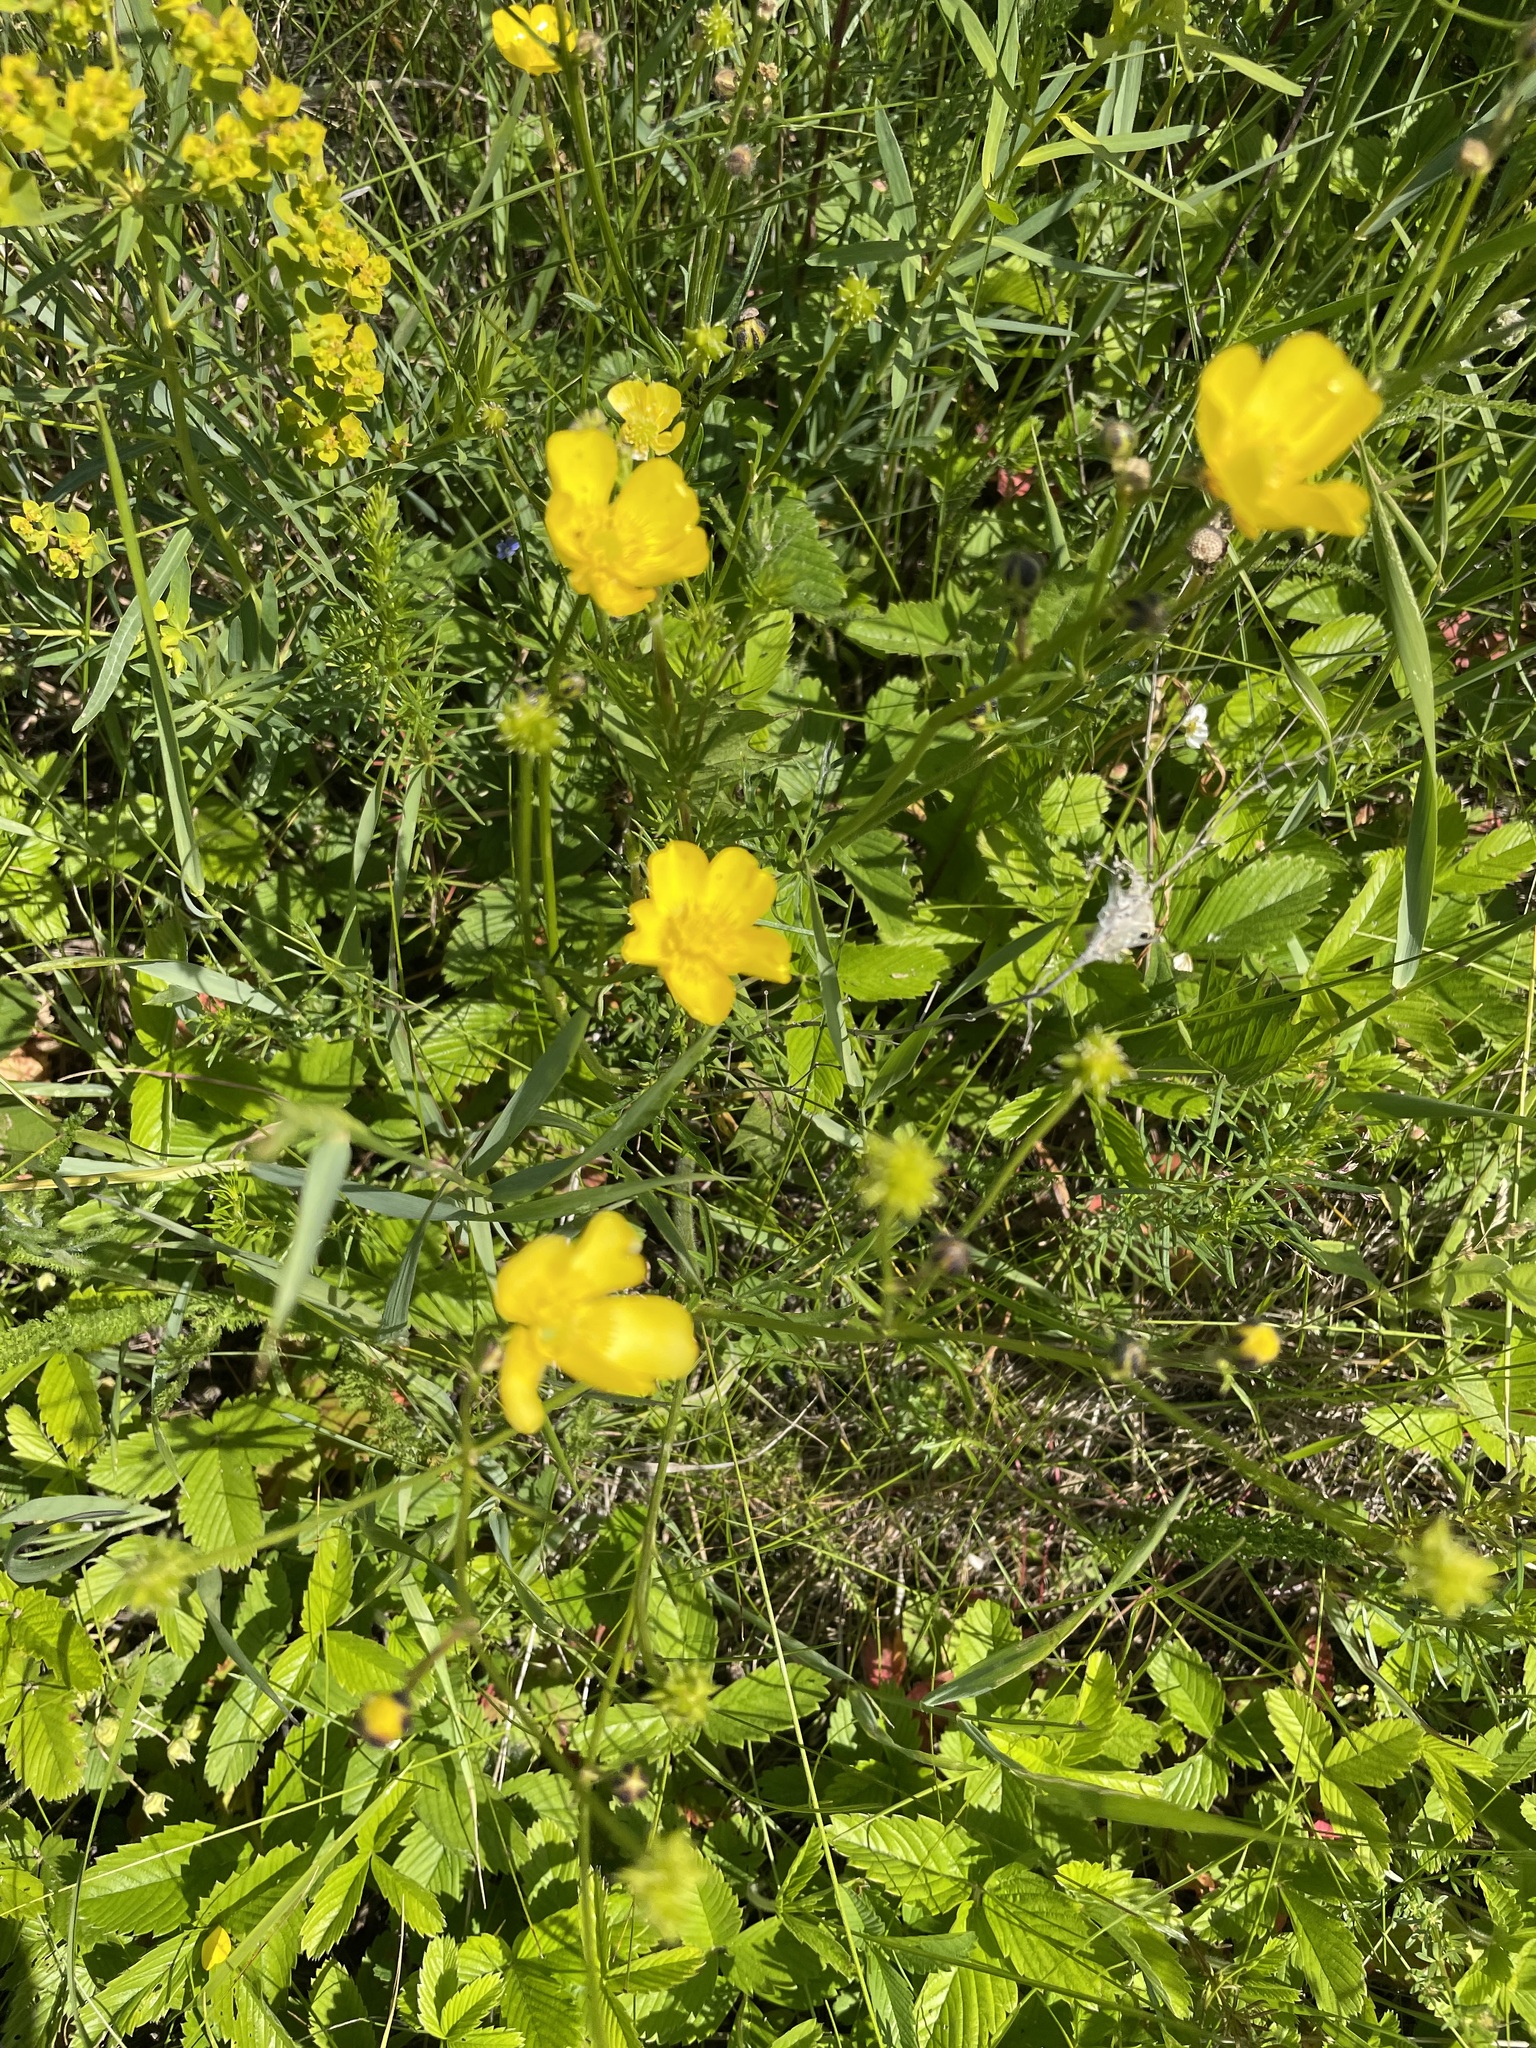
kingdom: Plantae
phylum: Tracheophyta
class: Magnoliopsida
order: Ranunculales
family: Ranunculaceae
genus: Ranunculus
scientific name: Ranunculus polyanthemos
